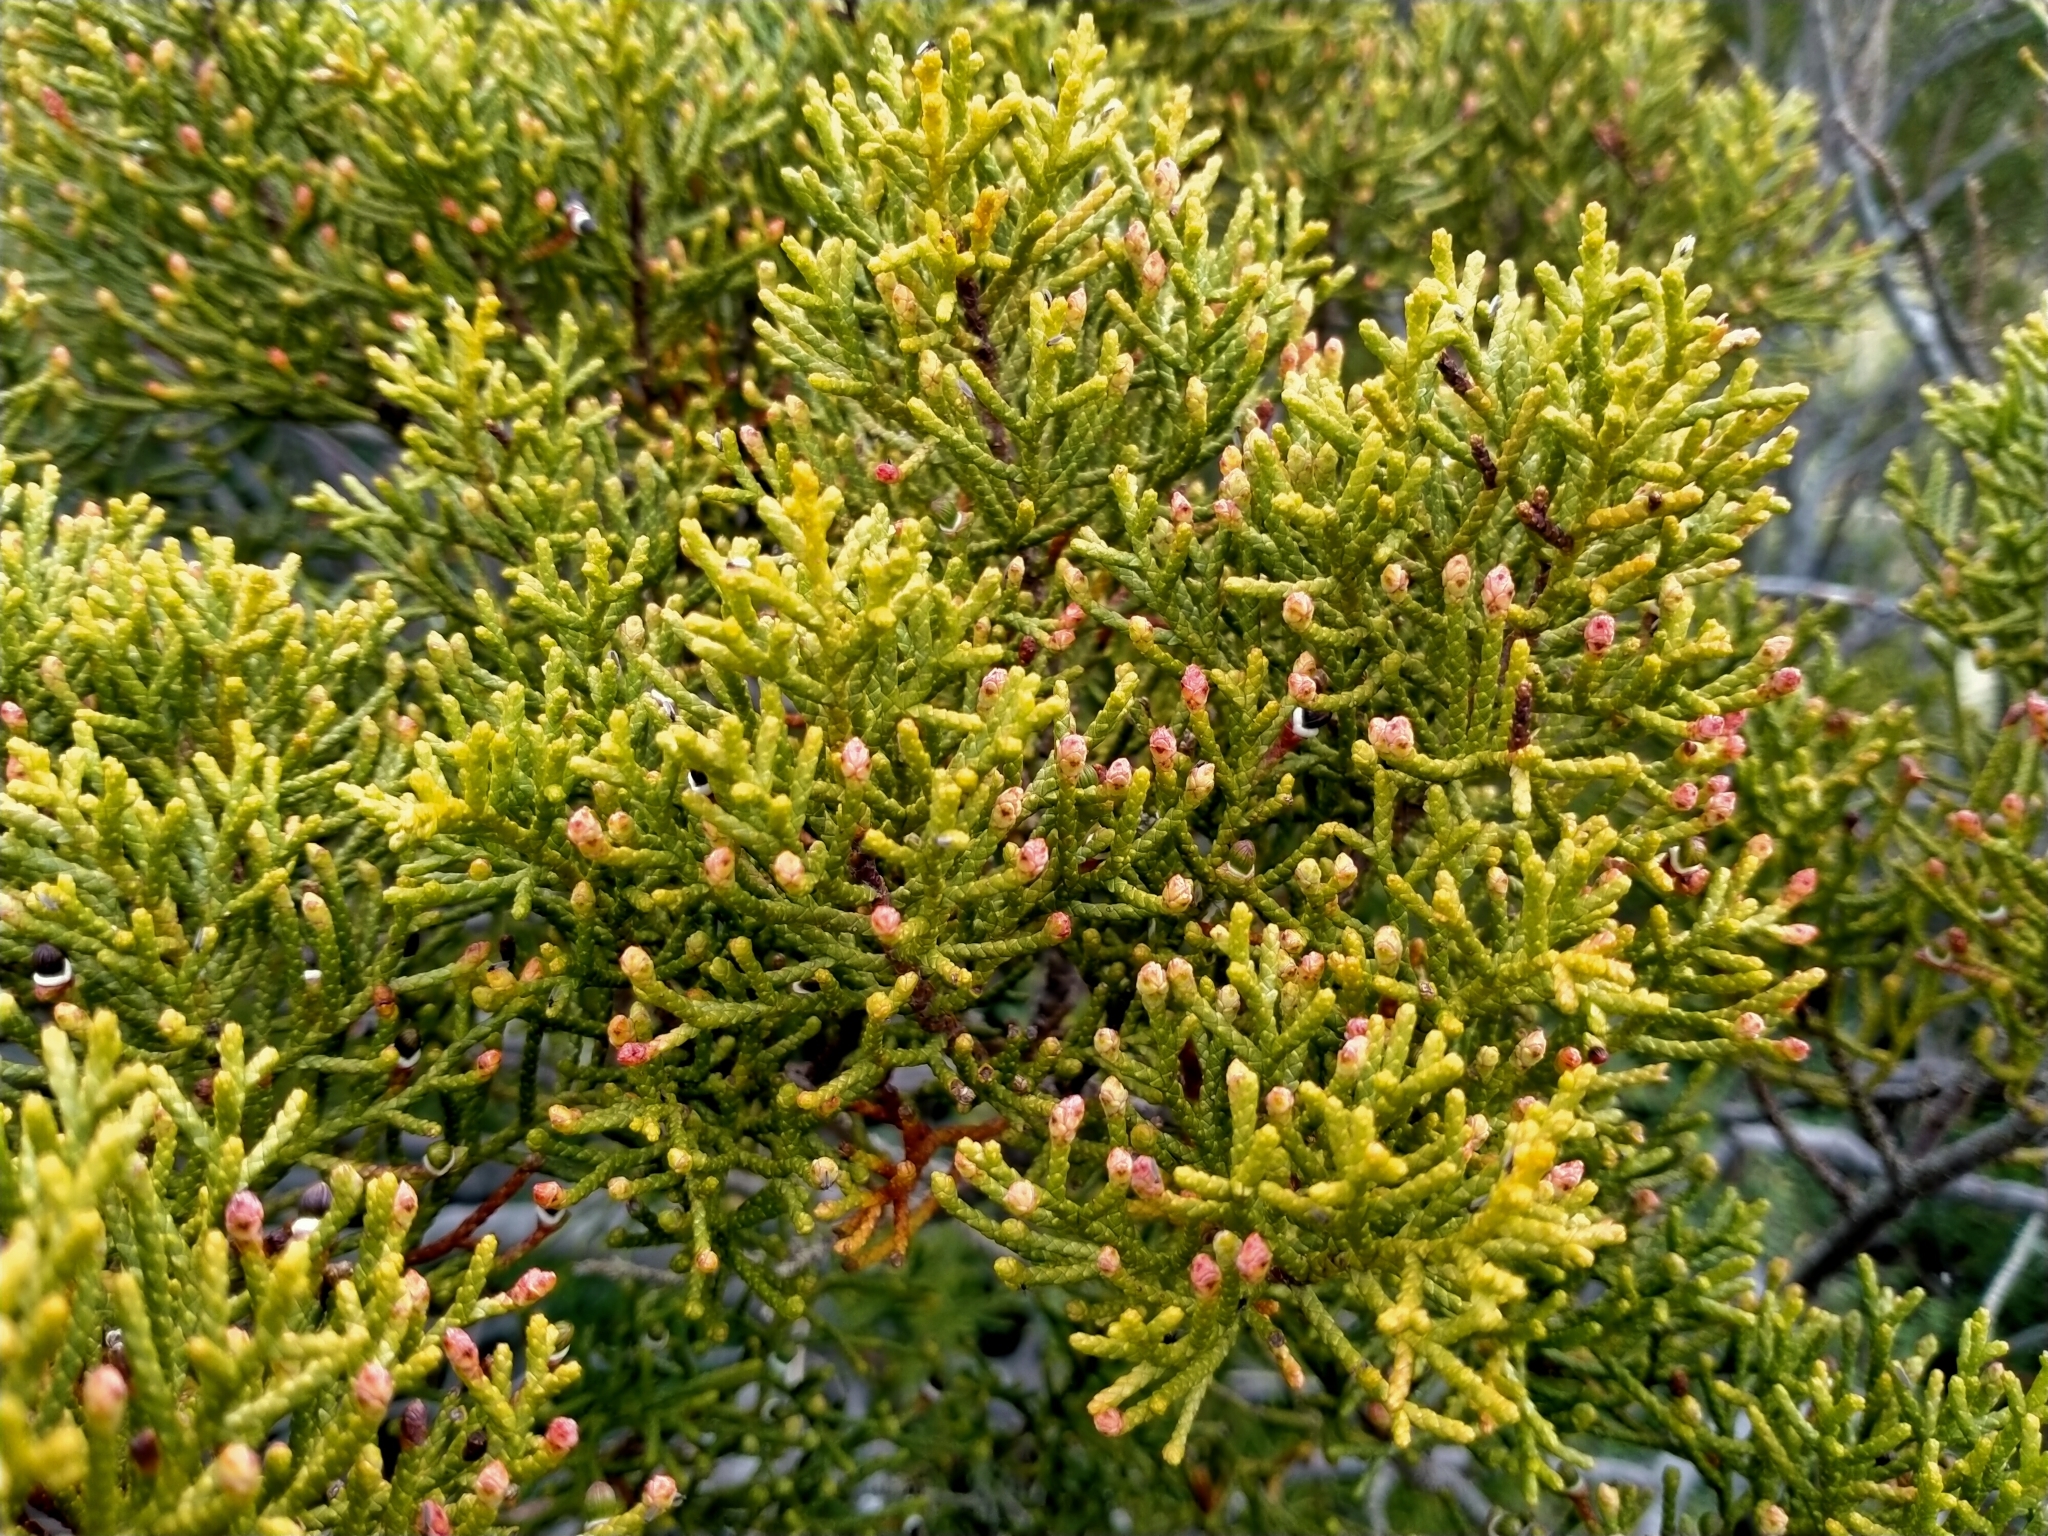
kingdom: Plantae
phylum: Tracheophyta
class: Pinopsida
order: Pinales
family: Podocarpaceae
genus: Halocarpus
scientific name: Halocarpus bidwillii
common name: Bog pine
